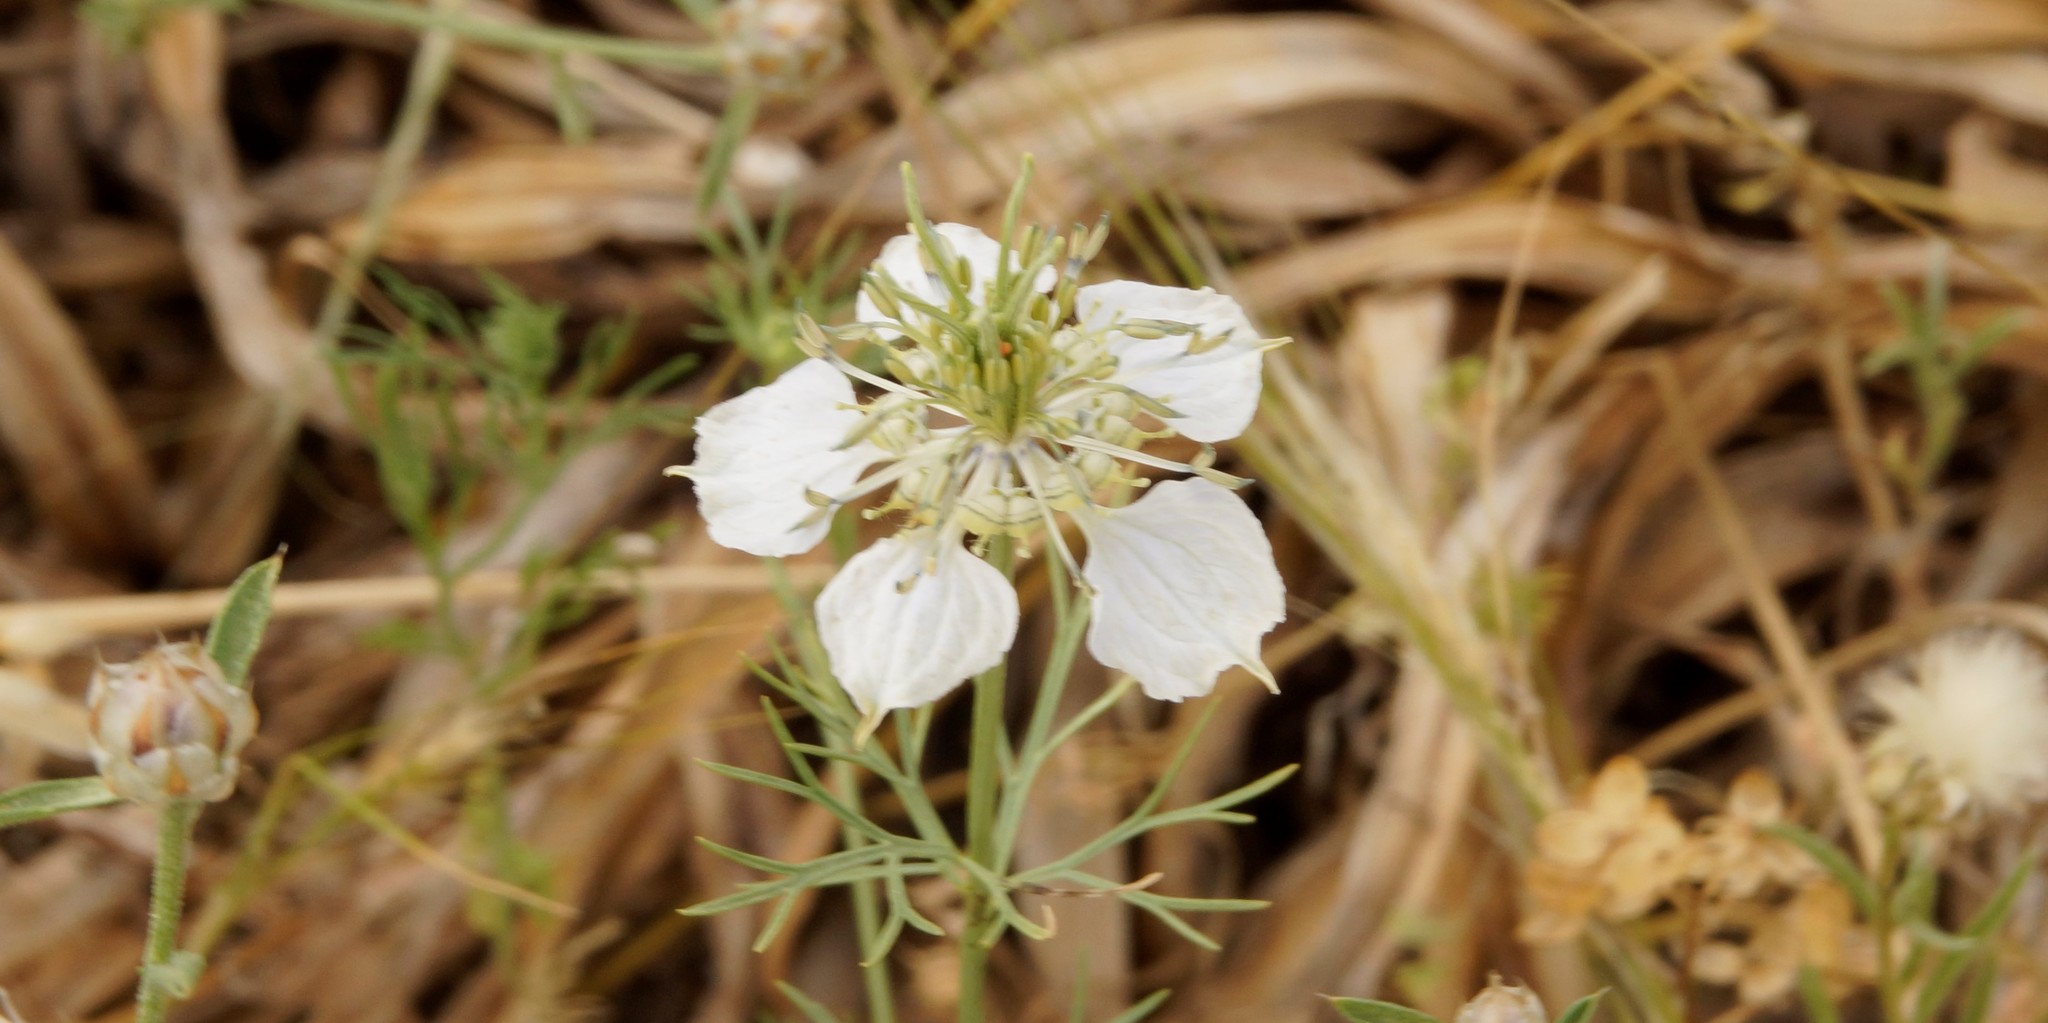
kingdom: Plantae
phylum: Tracheophyta
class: Magnoliopsida
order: Ranunculales
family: Ranunculaceae
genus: Nigella
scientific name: Nigella damascena
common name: Love-in-a-mist
